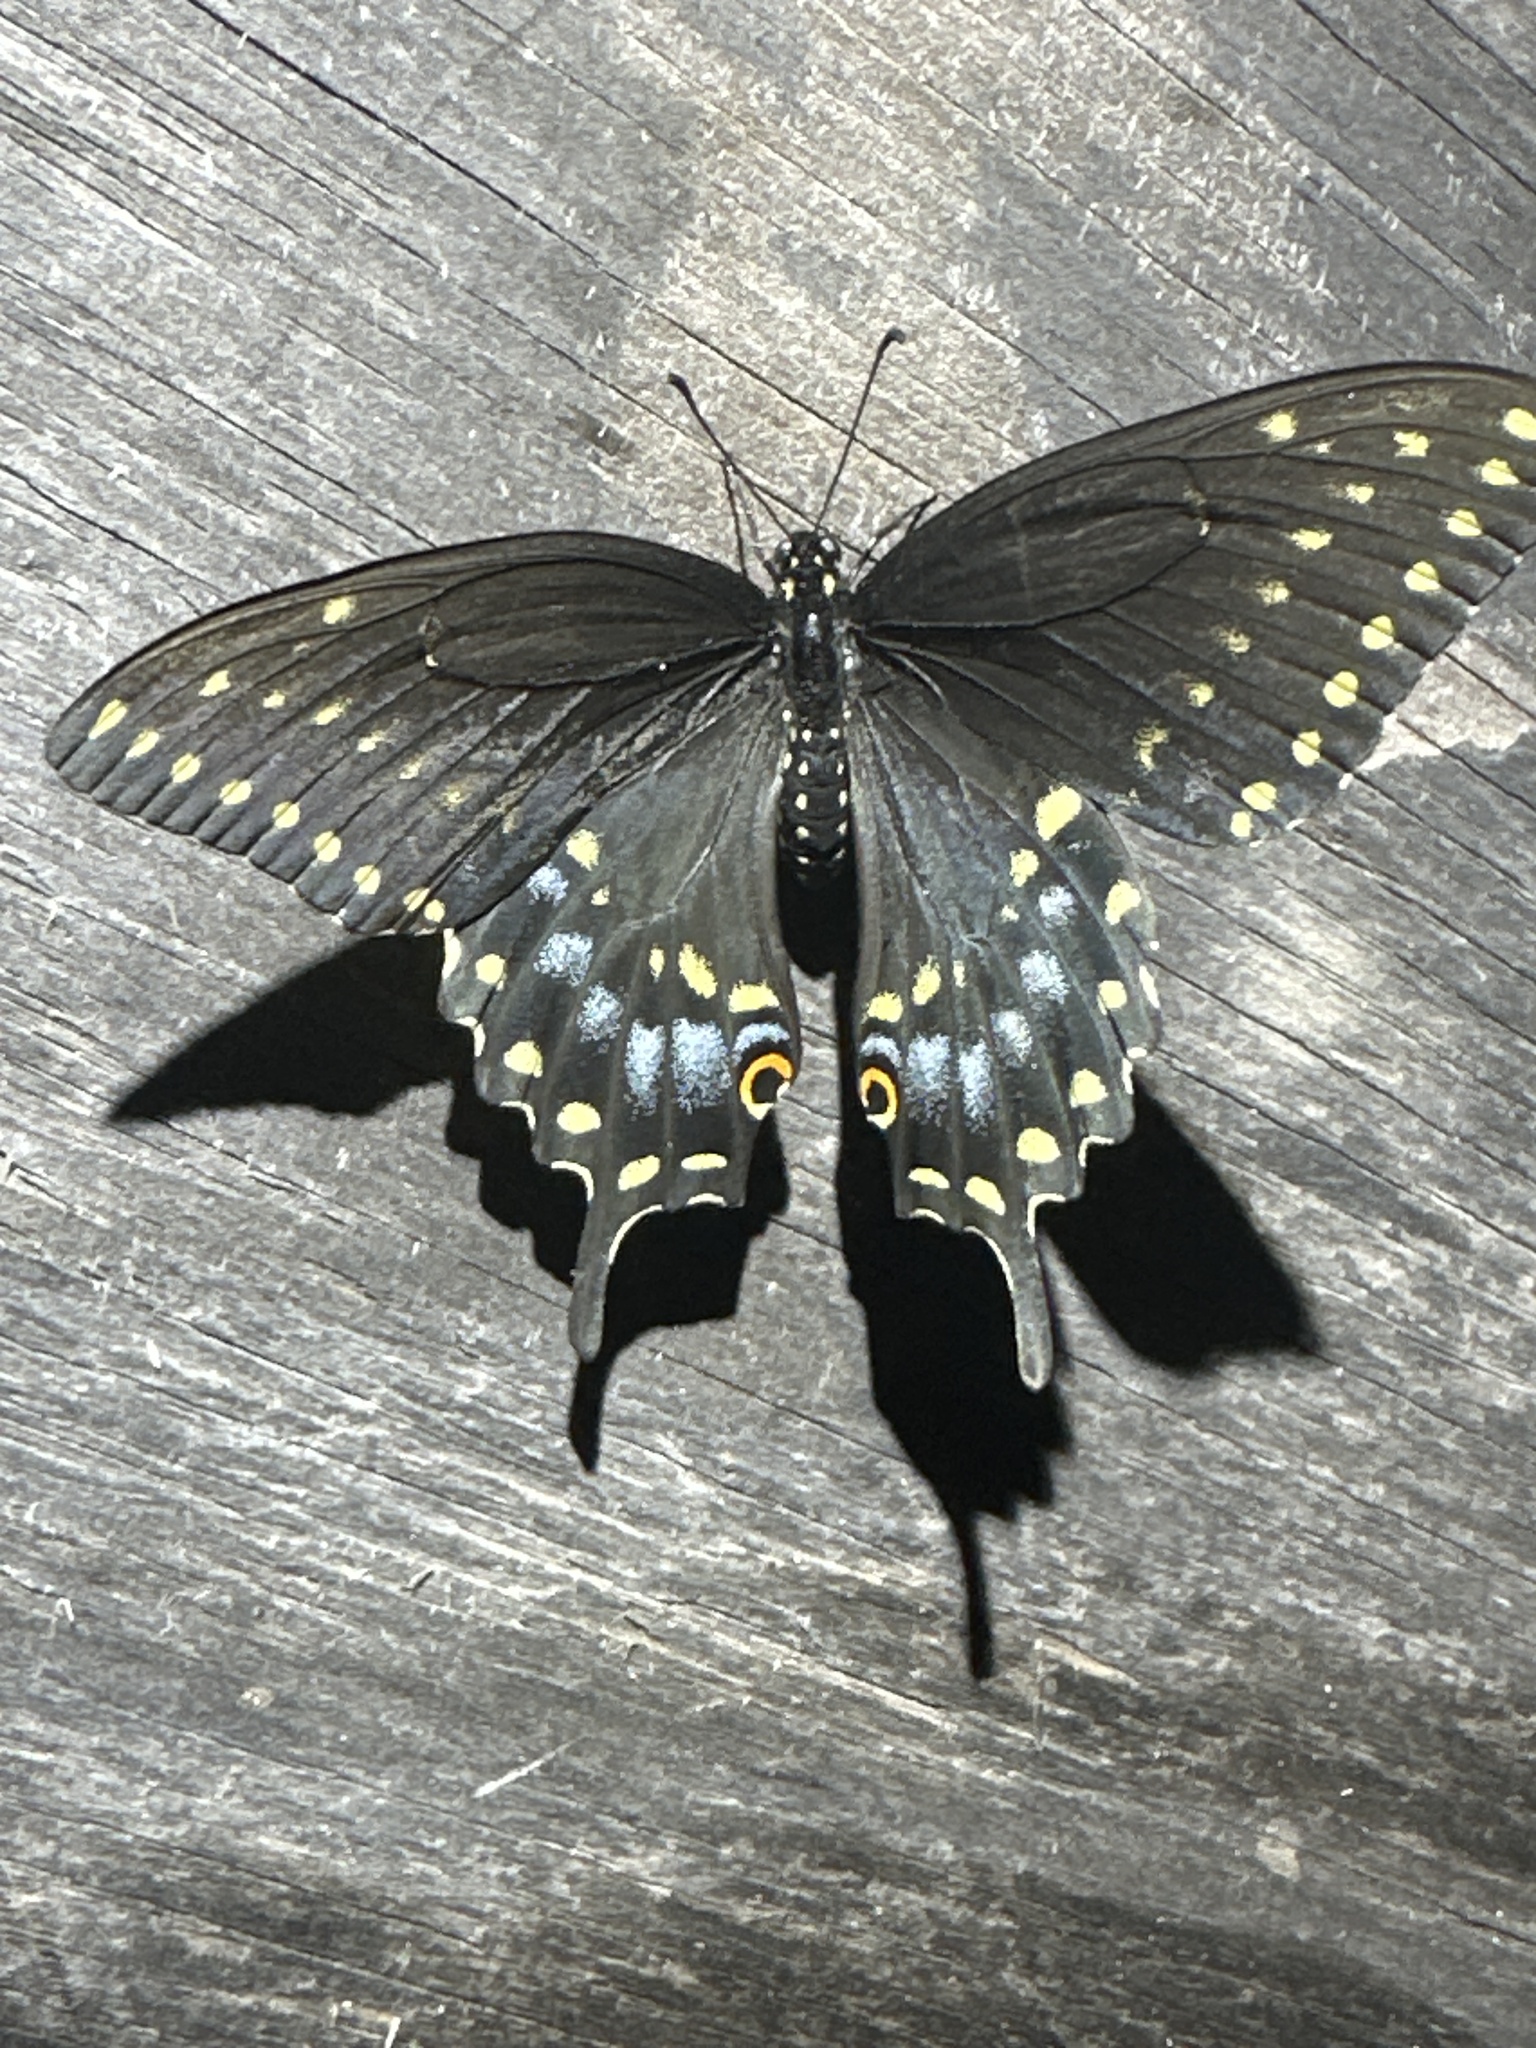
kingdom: Animalia
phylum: Arthropoda
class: Insecta
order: Lepidoptera
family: Papilionidae
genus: Papilio
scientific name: Papilio polyxenes
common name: Black swallowtail
